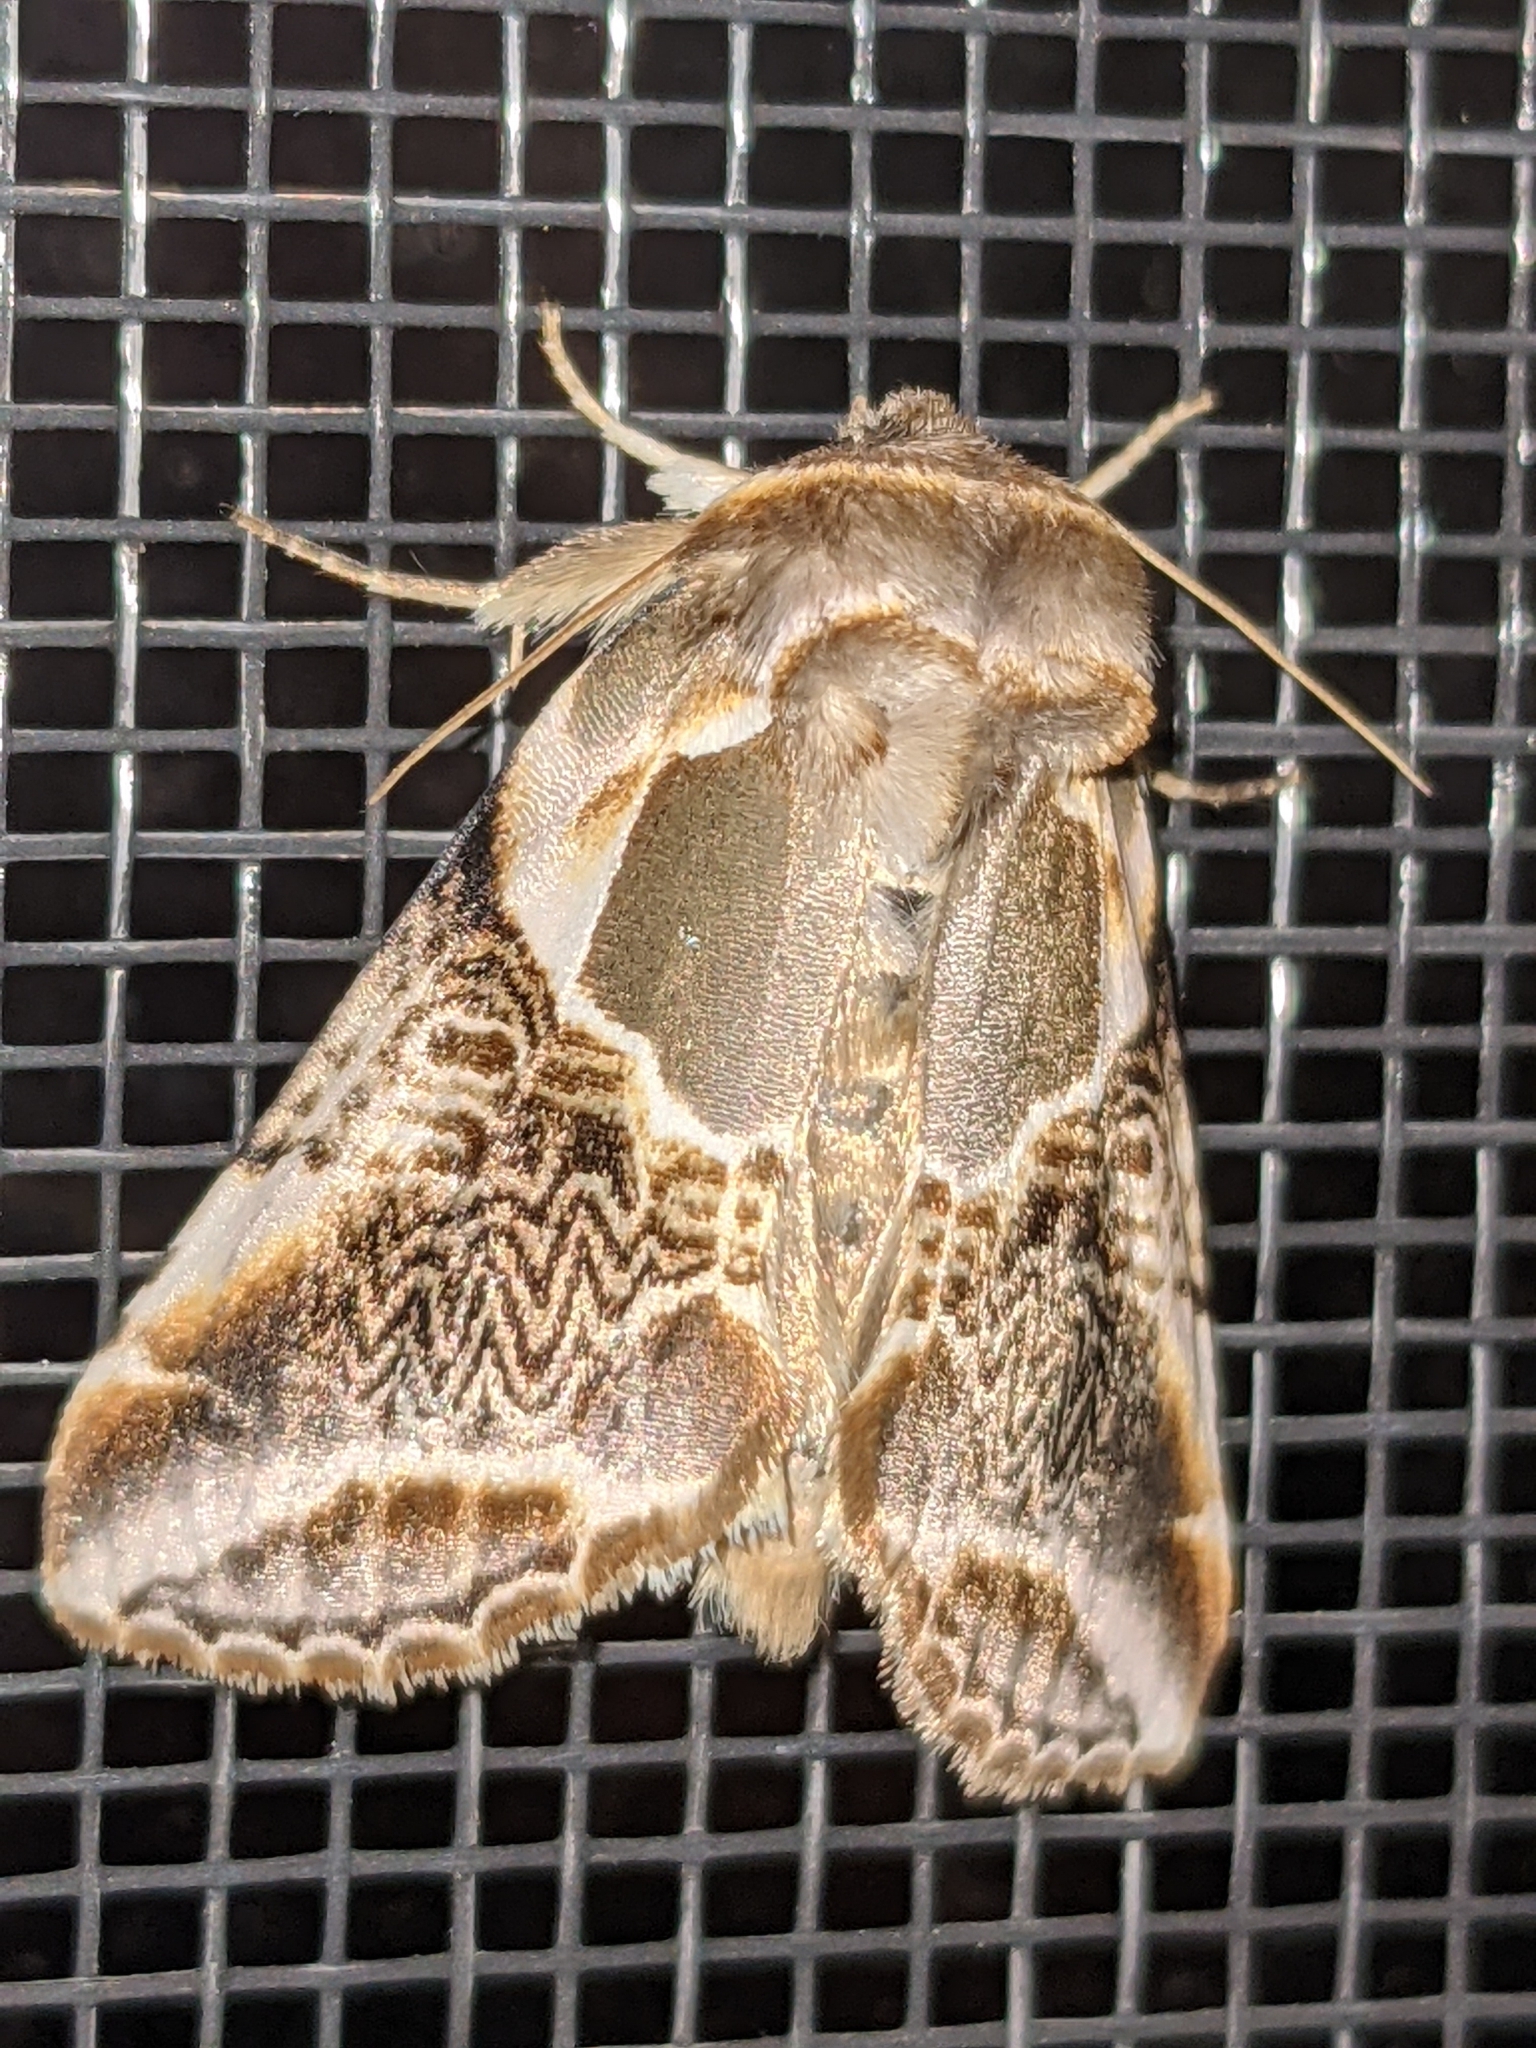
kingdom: Animalia
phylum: Arthropoda
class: Insecta
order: Lepidoptera
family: Drepanidae
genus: Habrosyne
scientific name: Habrosyne scripta
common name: Lettered habrosyne moth
